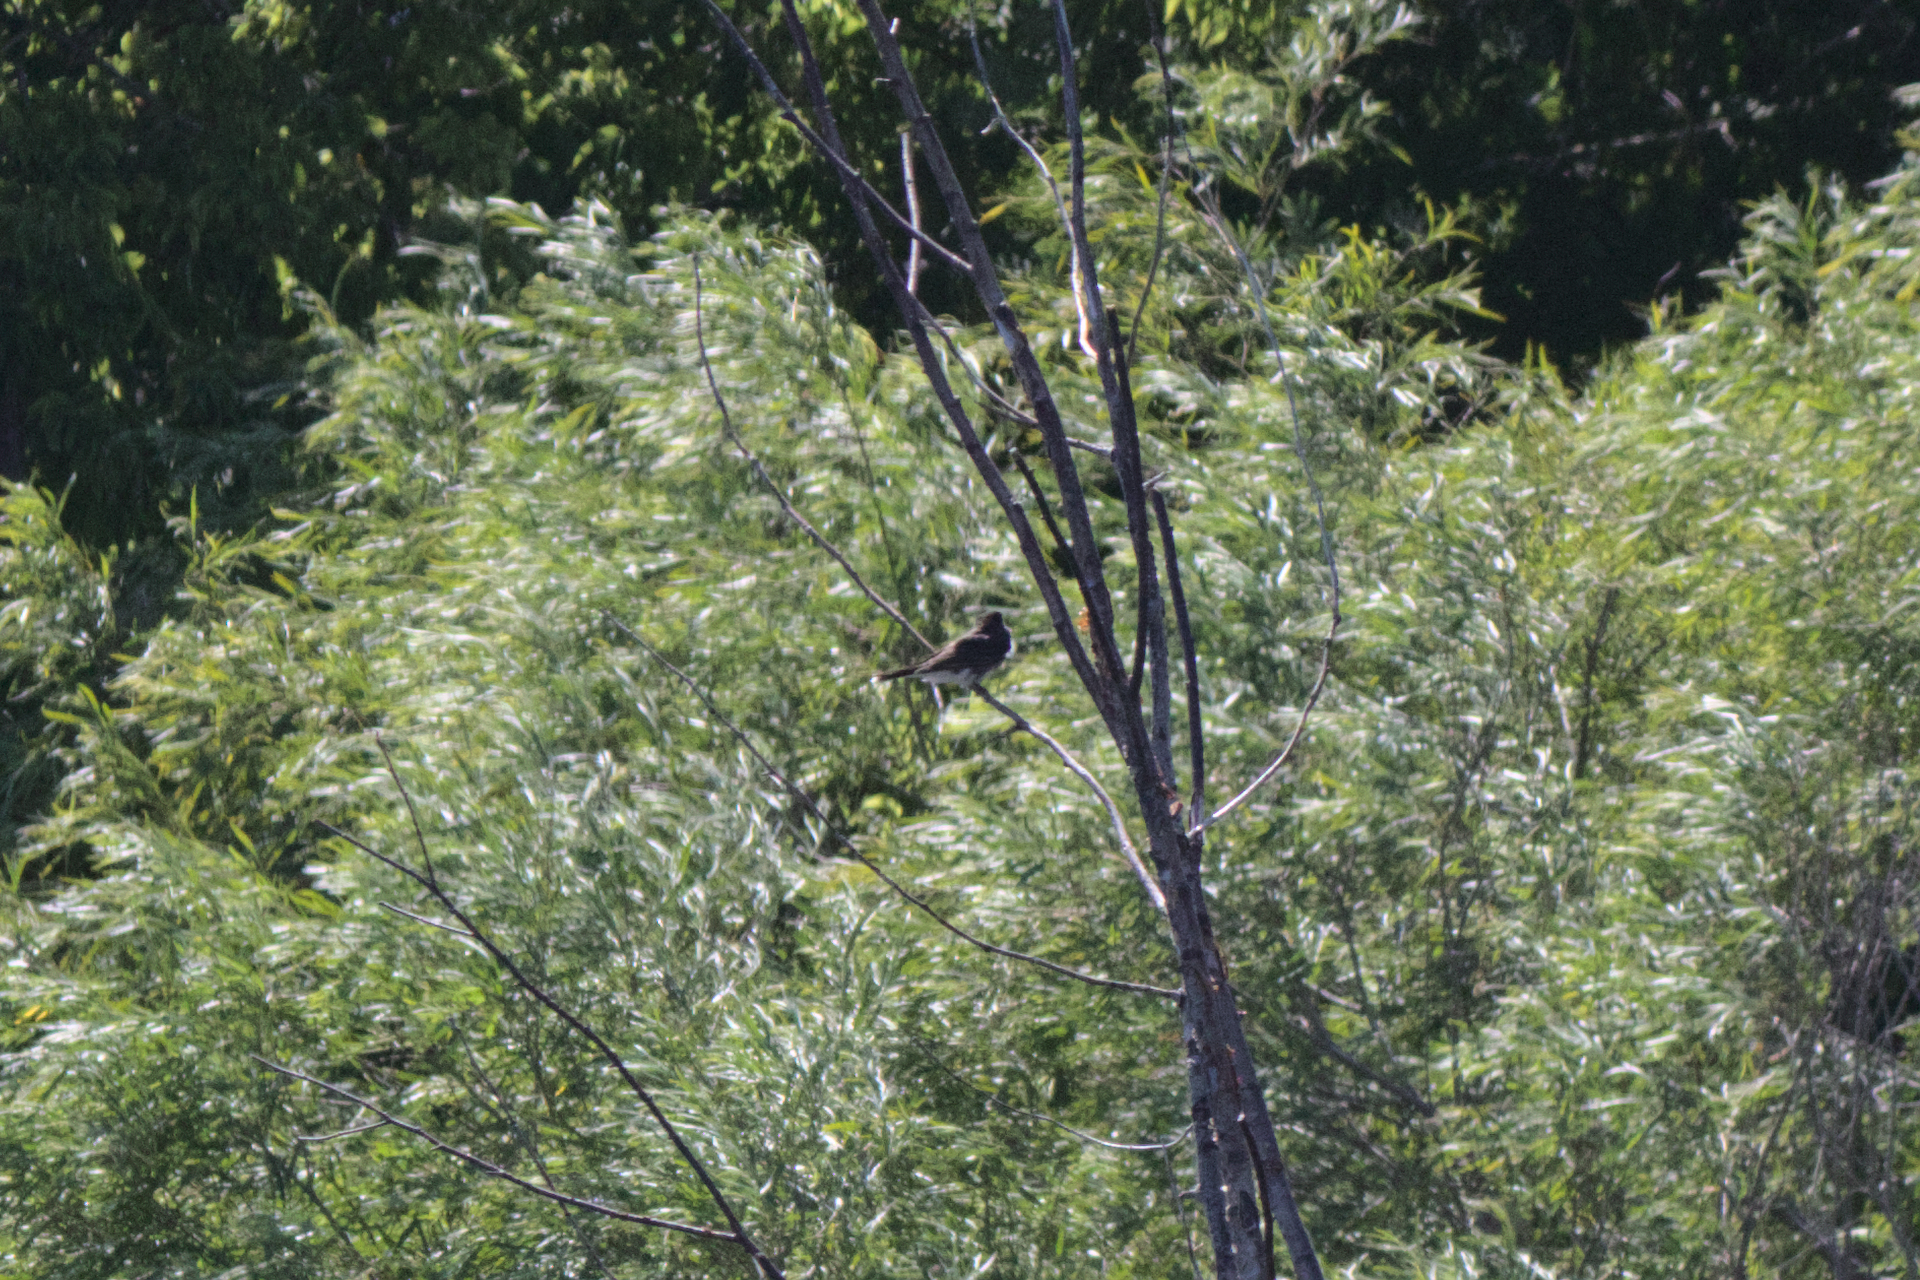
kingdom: Animalia
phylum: Chordata
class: Aves
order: Passeriformes
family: Tyrannidae
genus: Tyrannus
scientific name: Tyrannus tyrannus
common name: Eastern kingbird
